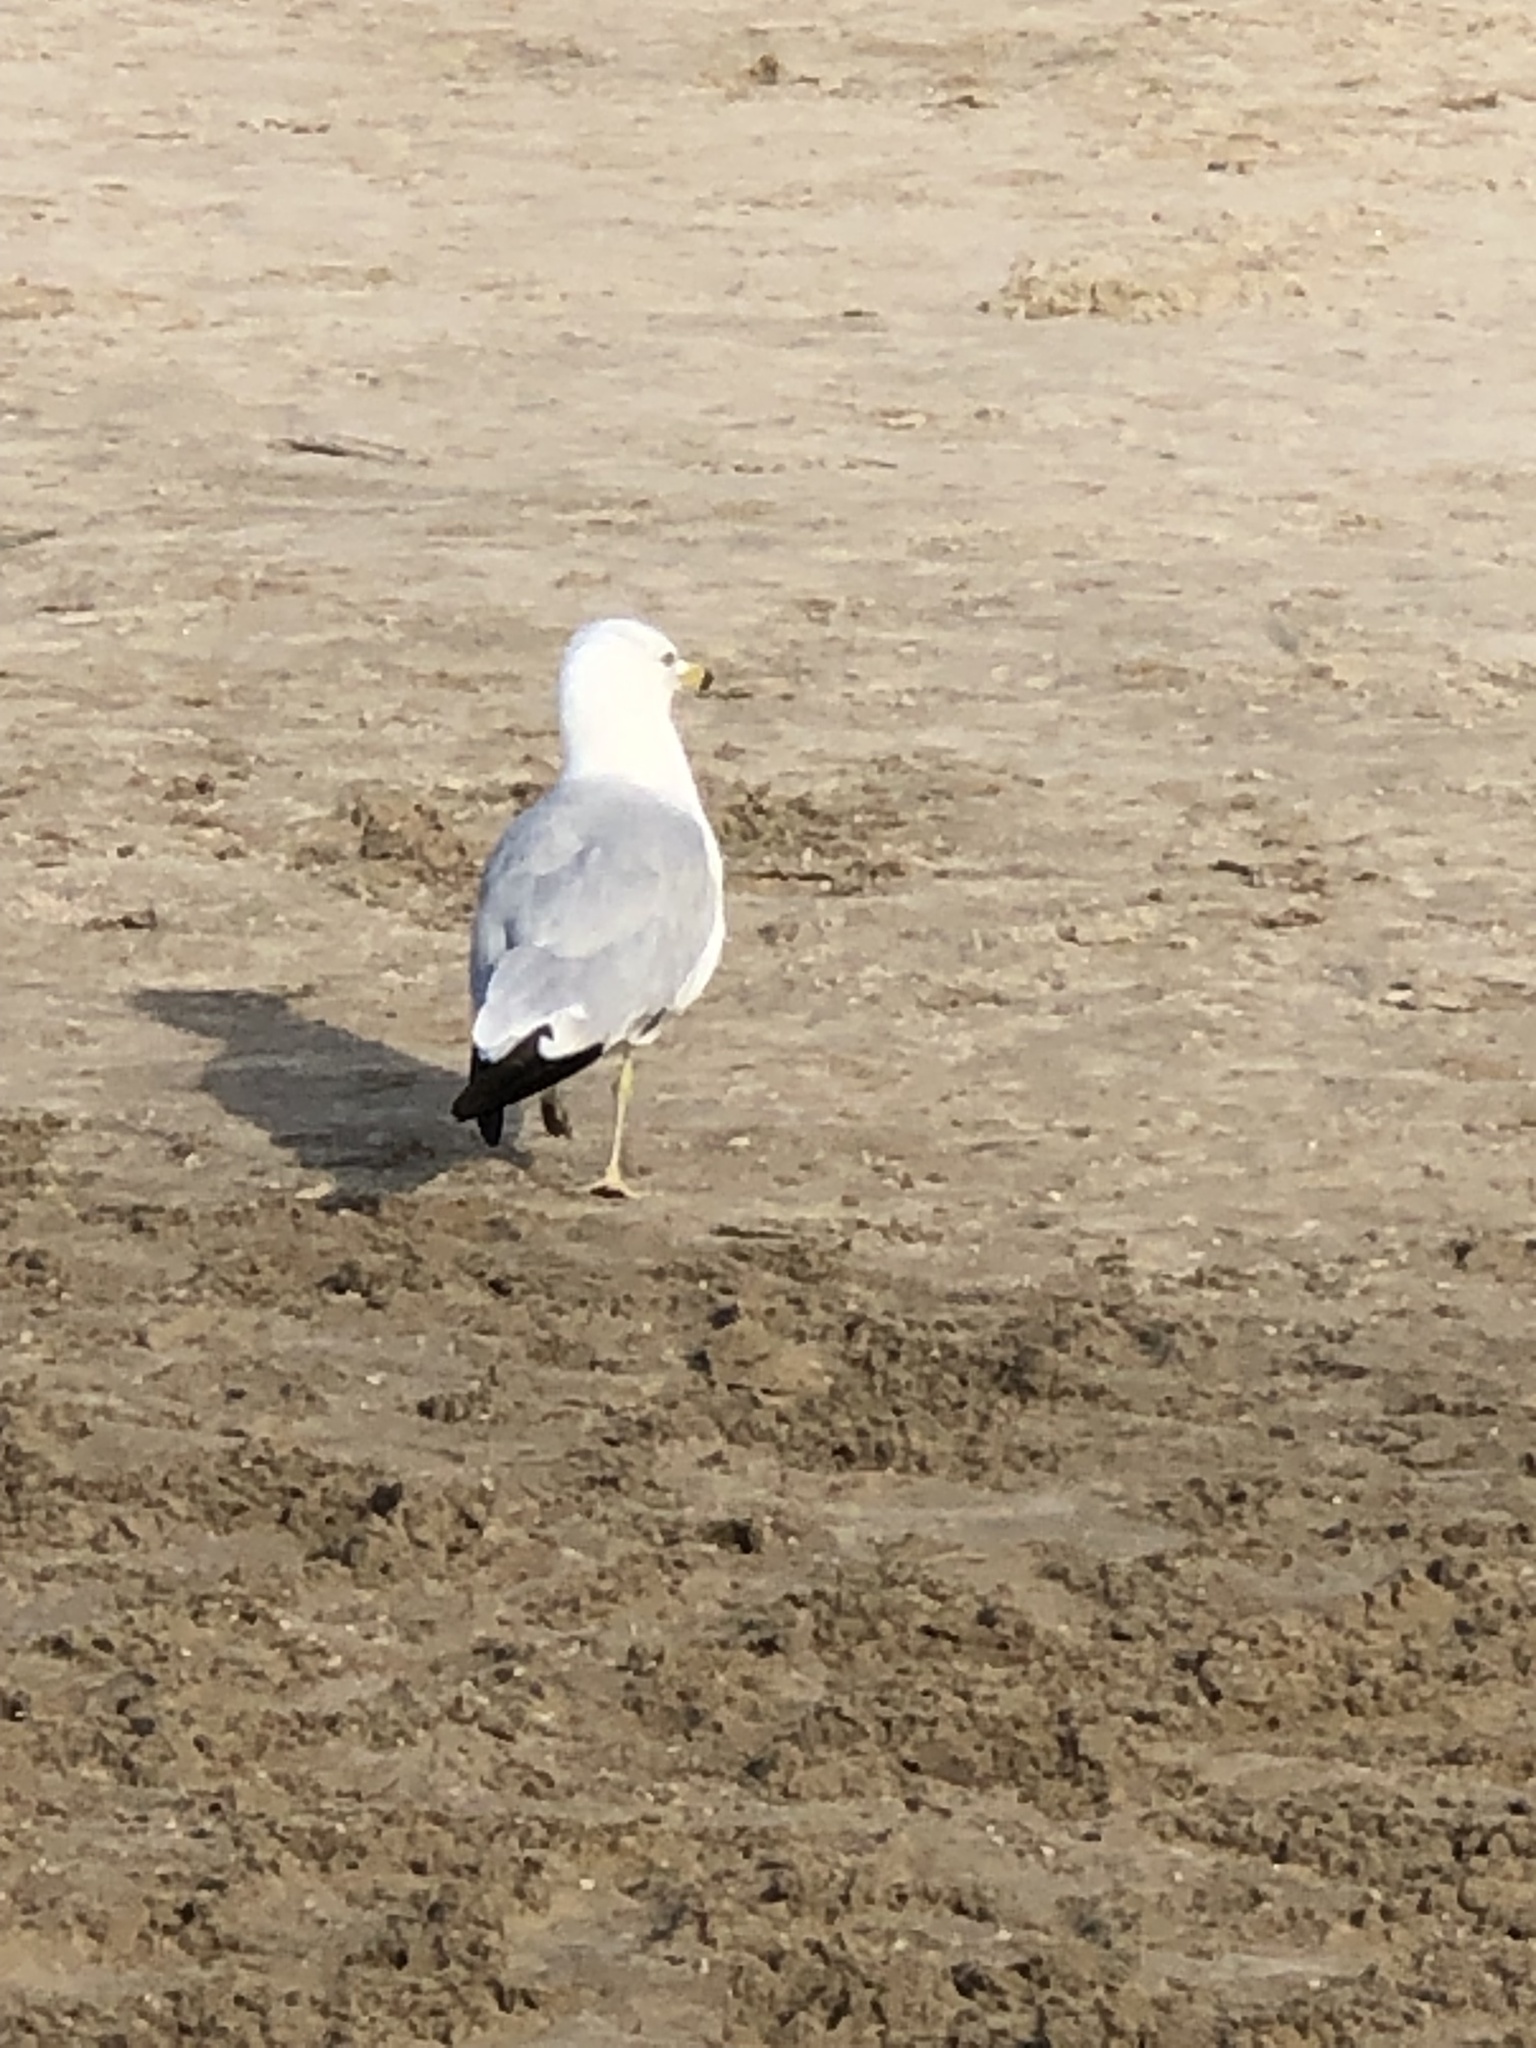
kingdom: Animalia
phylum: Chordata
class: Aves
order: Charadriiformes
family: Laridae
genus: Larus
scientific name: Larus delawarensis
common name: Ring-billed gull
